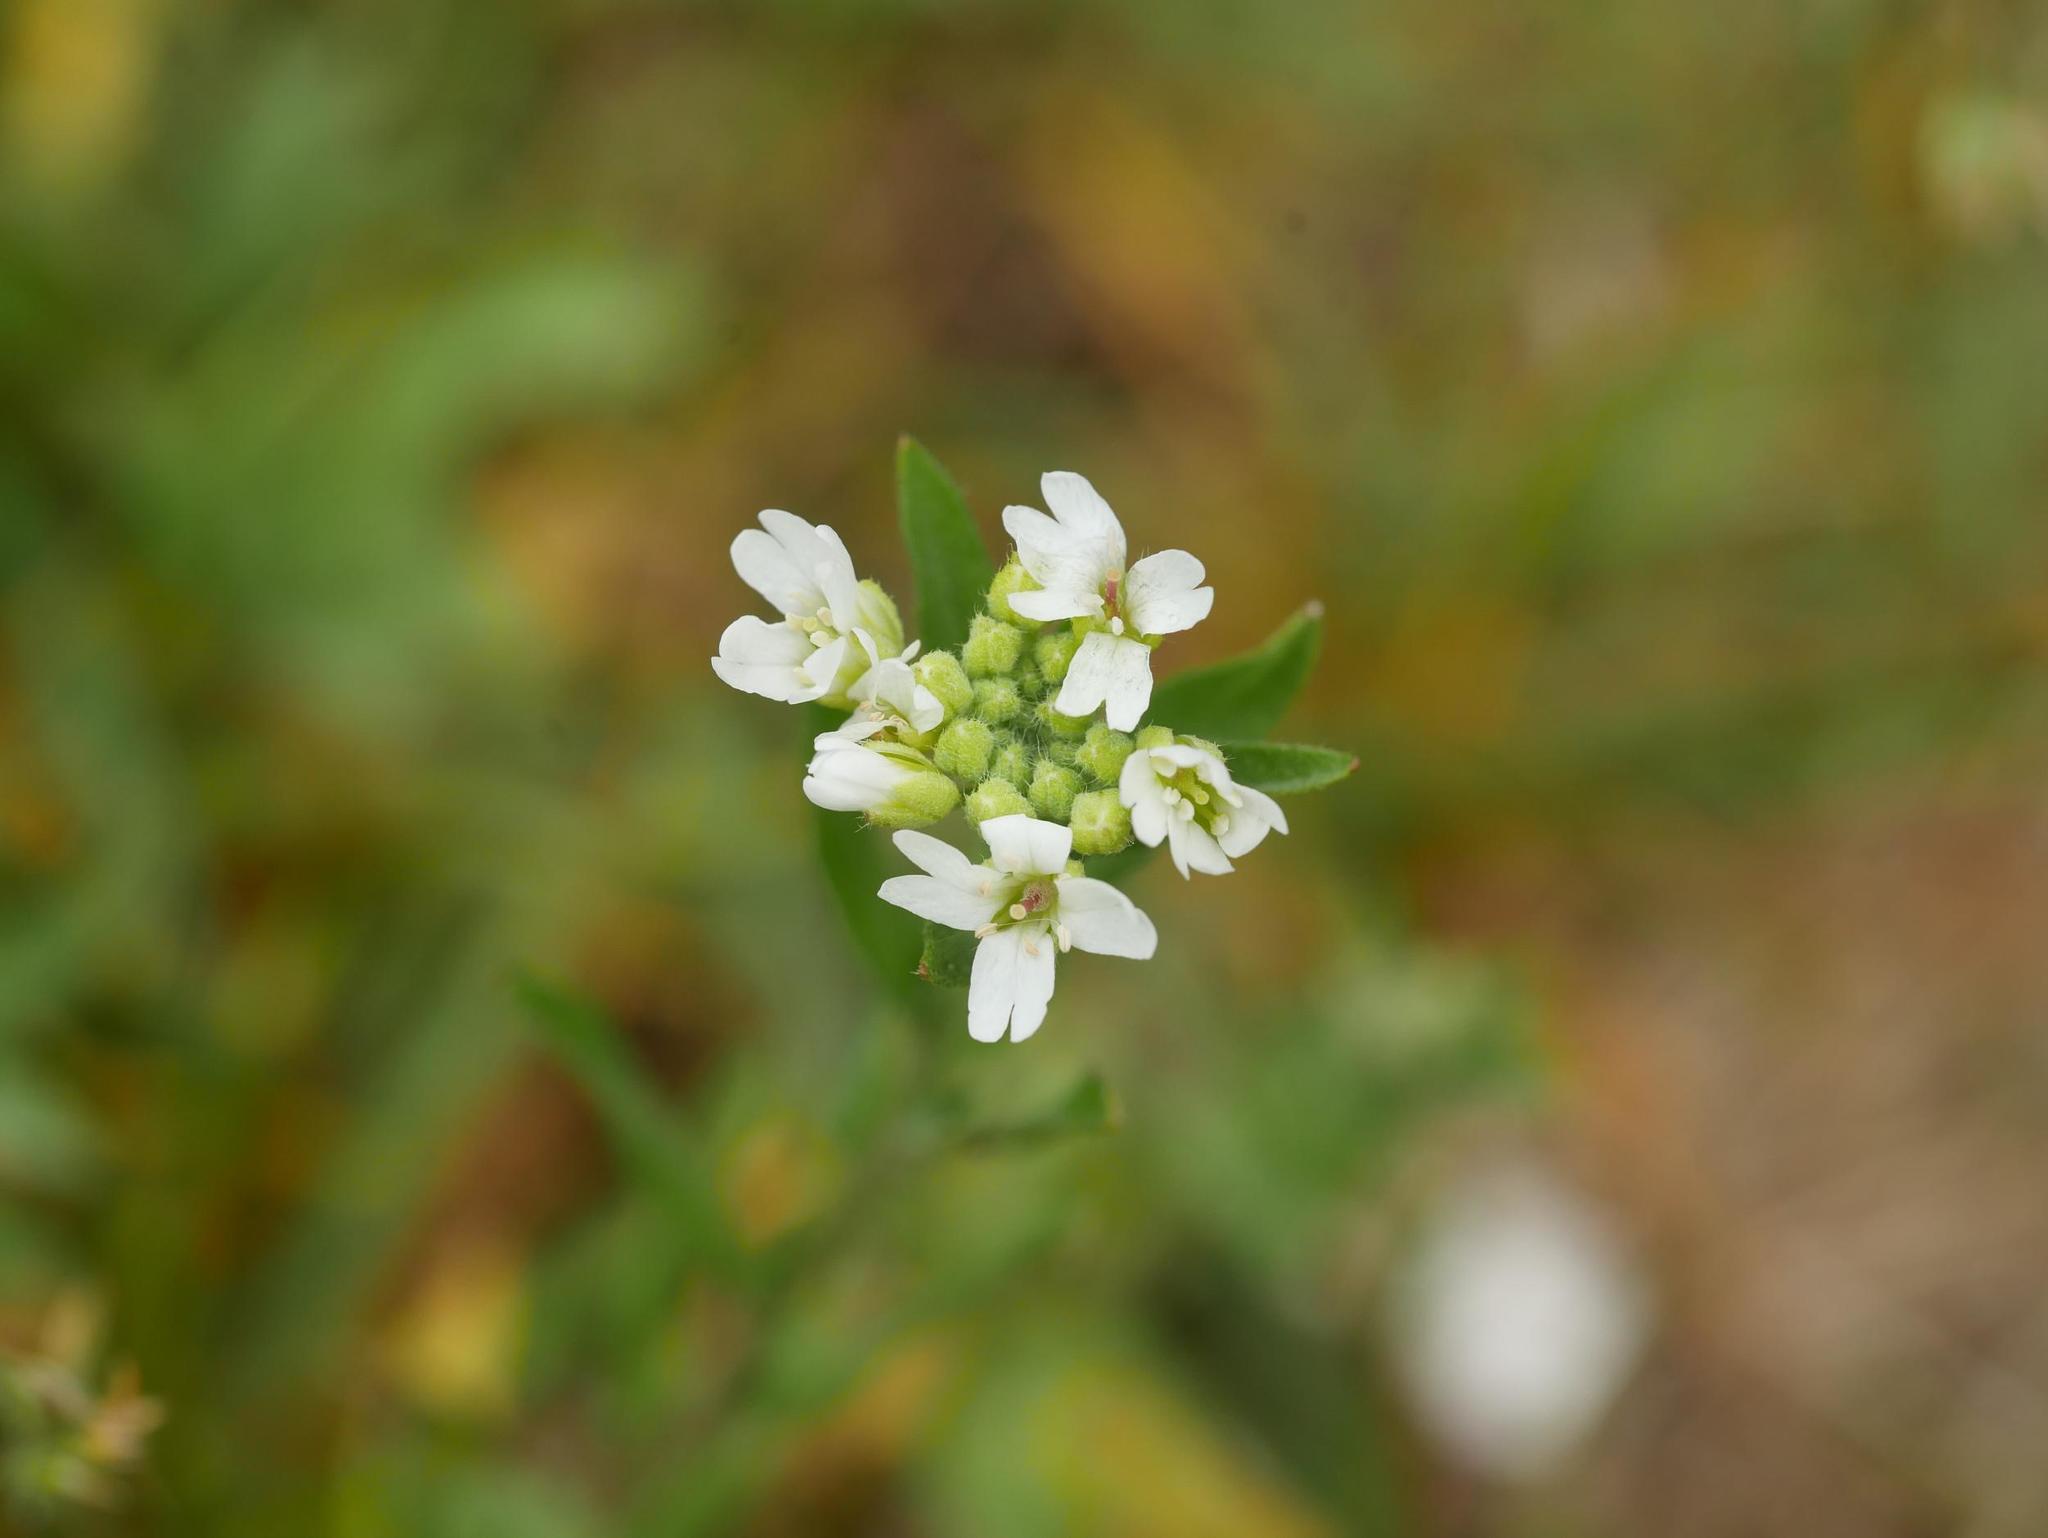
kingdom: Plantae
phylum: Tracheophyta
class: Magnoliopsida
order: Brassicales
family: Brassicaceae
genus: Berteroa
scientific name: Berteroa incana
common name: Hoary alison
